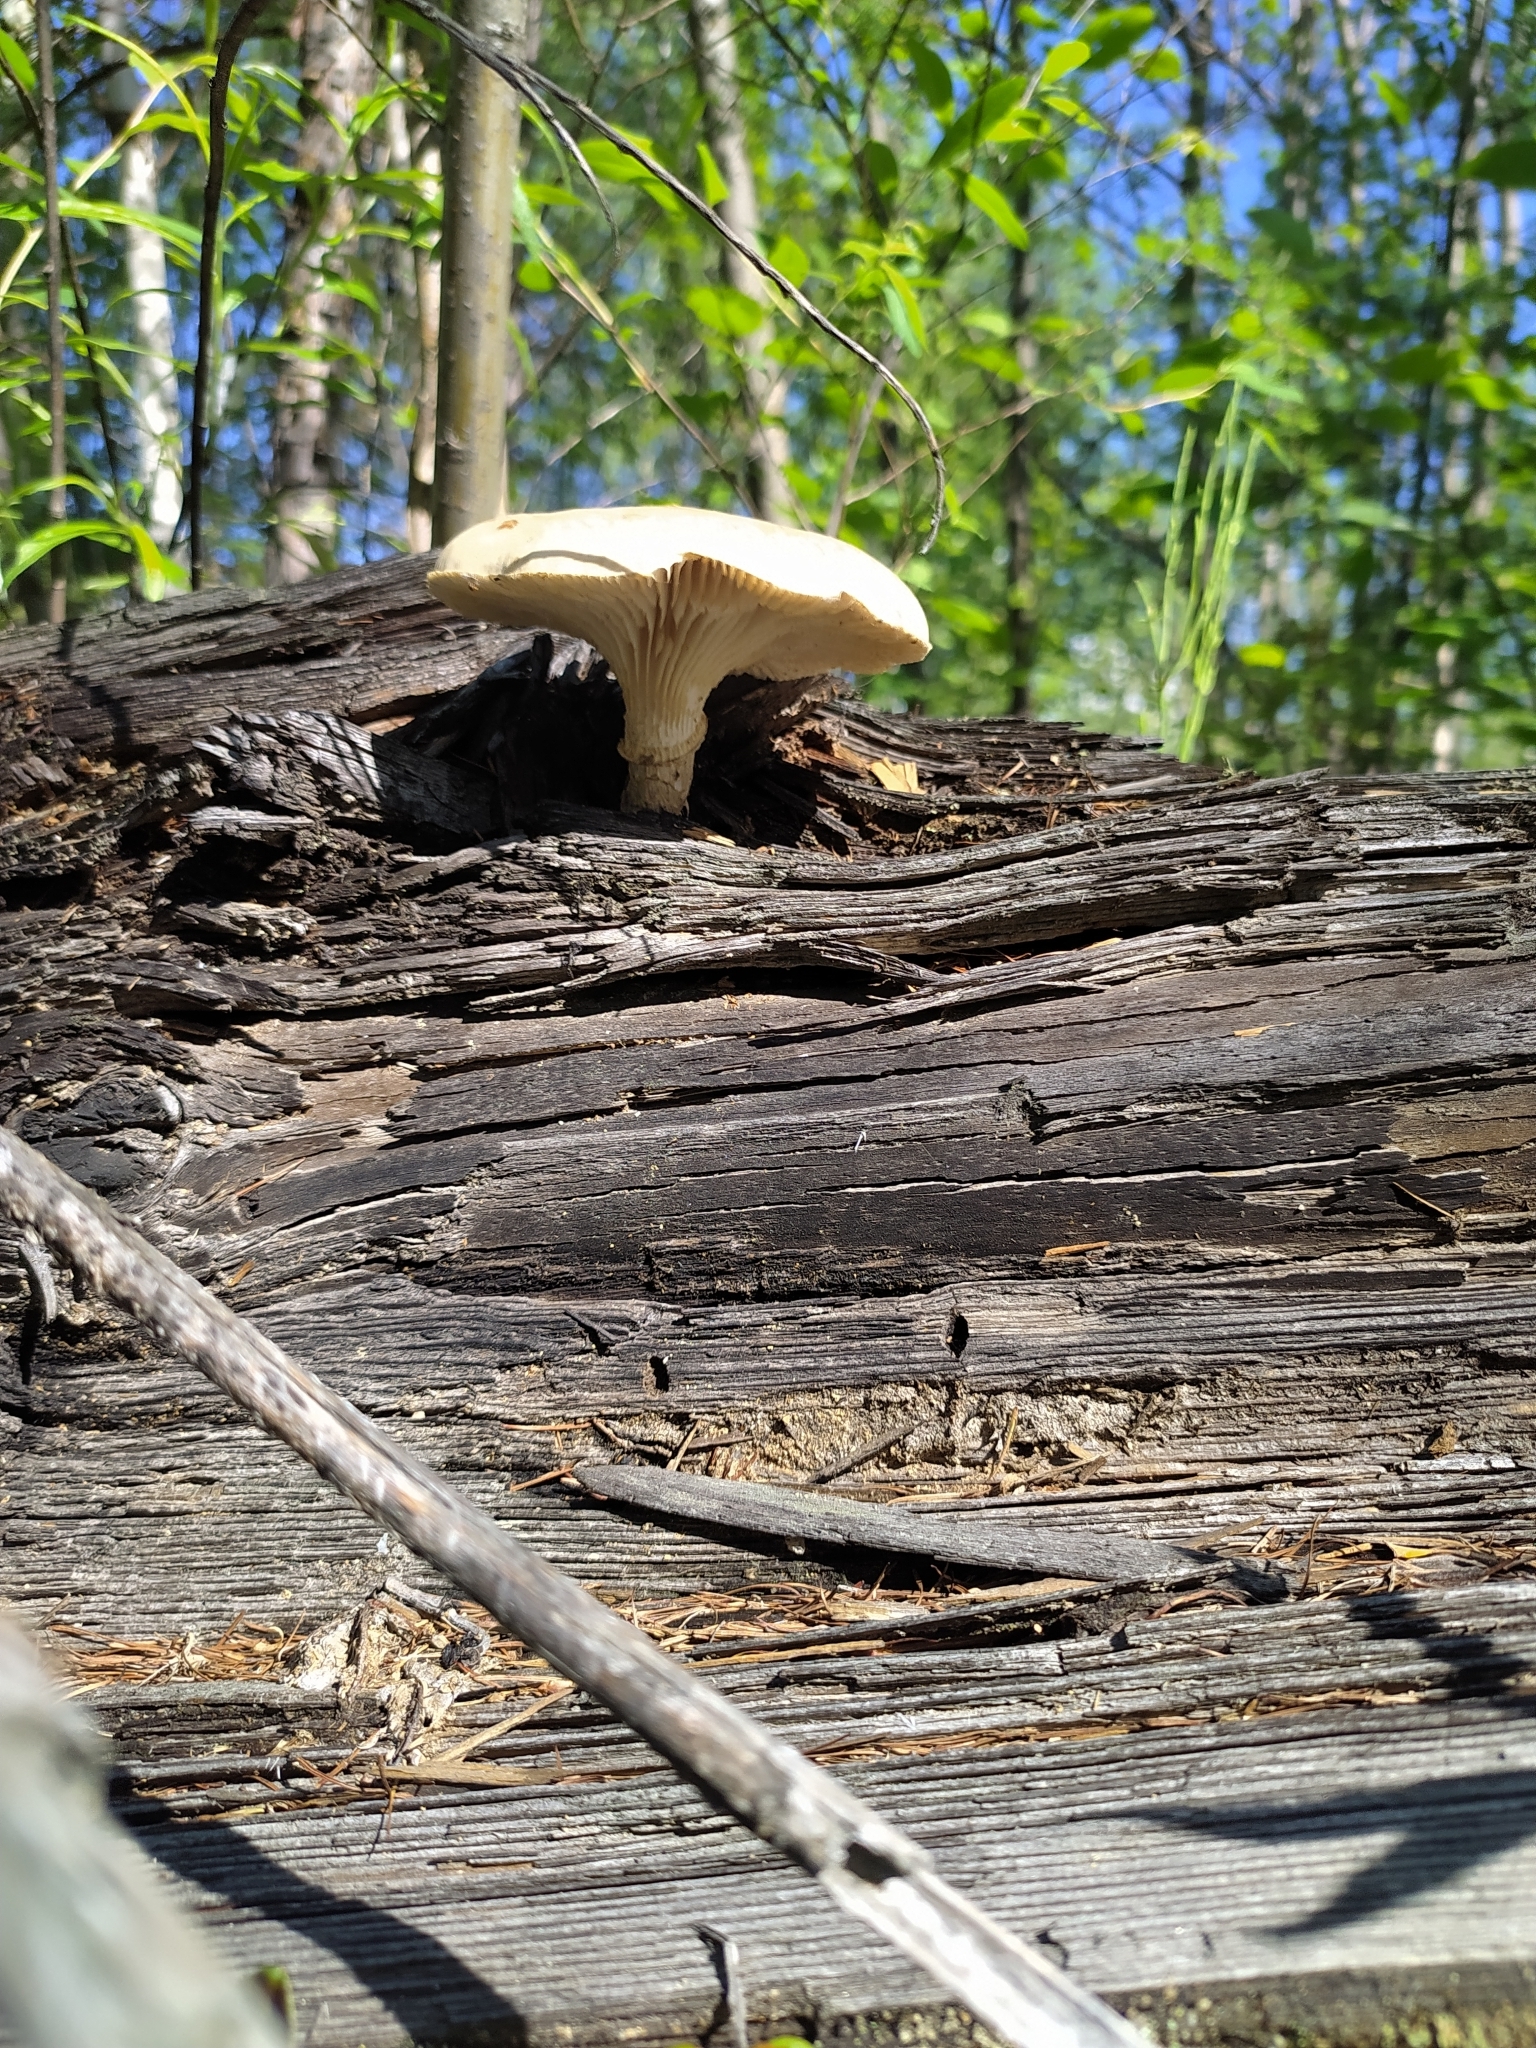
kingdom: Fungi
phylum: Basidiomycota
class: Agaricomycetes
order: Gloeophyllales
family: Gloeophyllaceae
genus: Neolentinus
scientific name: Neolentinus lepideus
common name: Scaly sawgill
